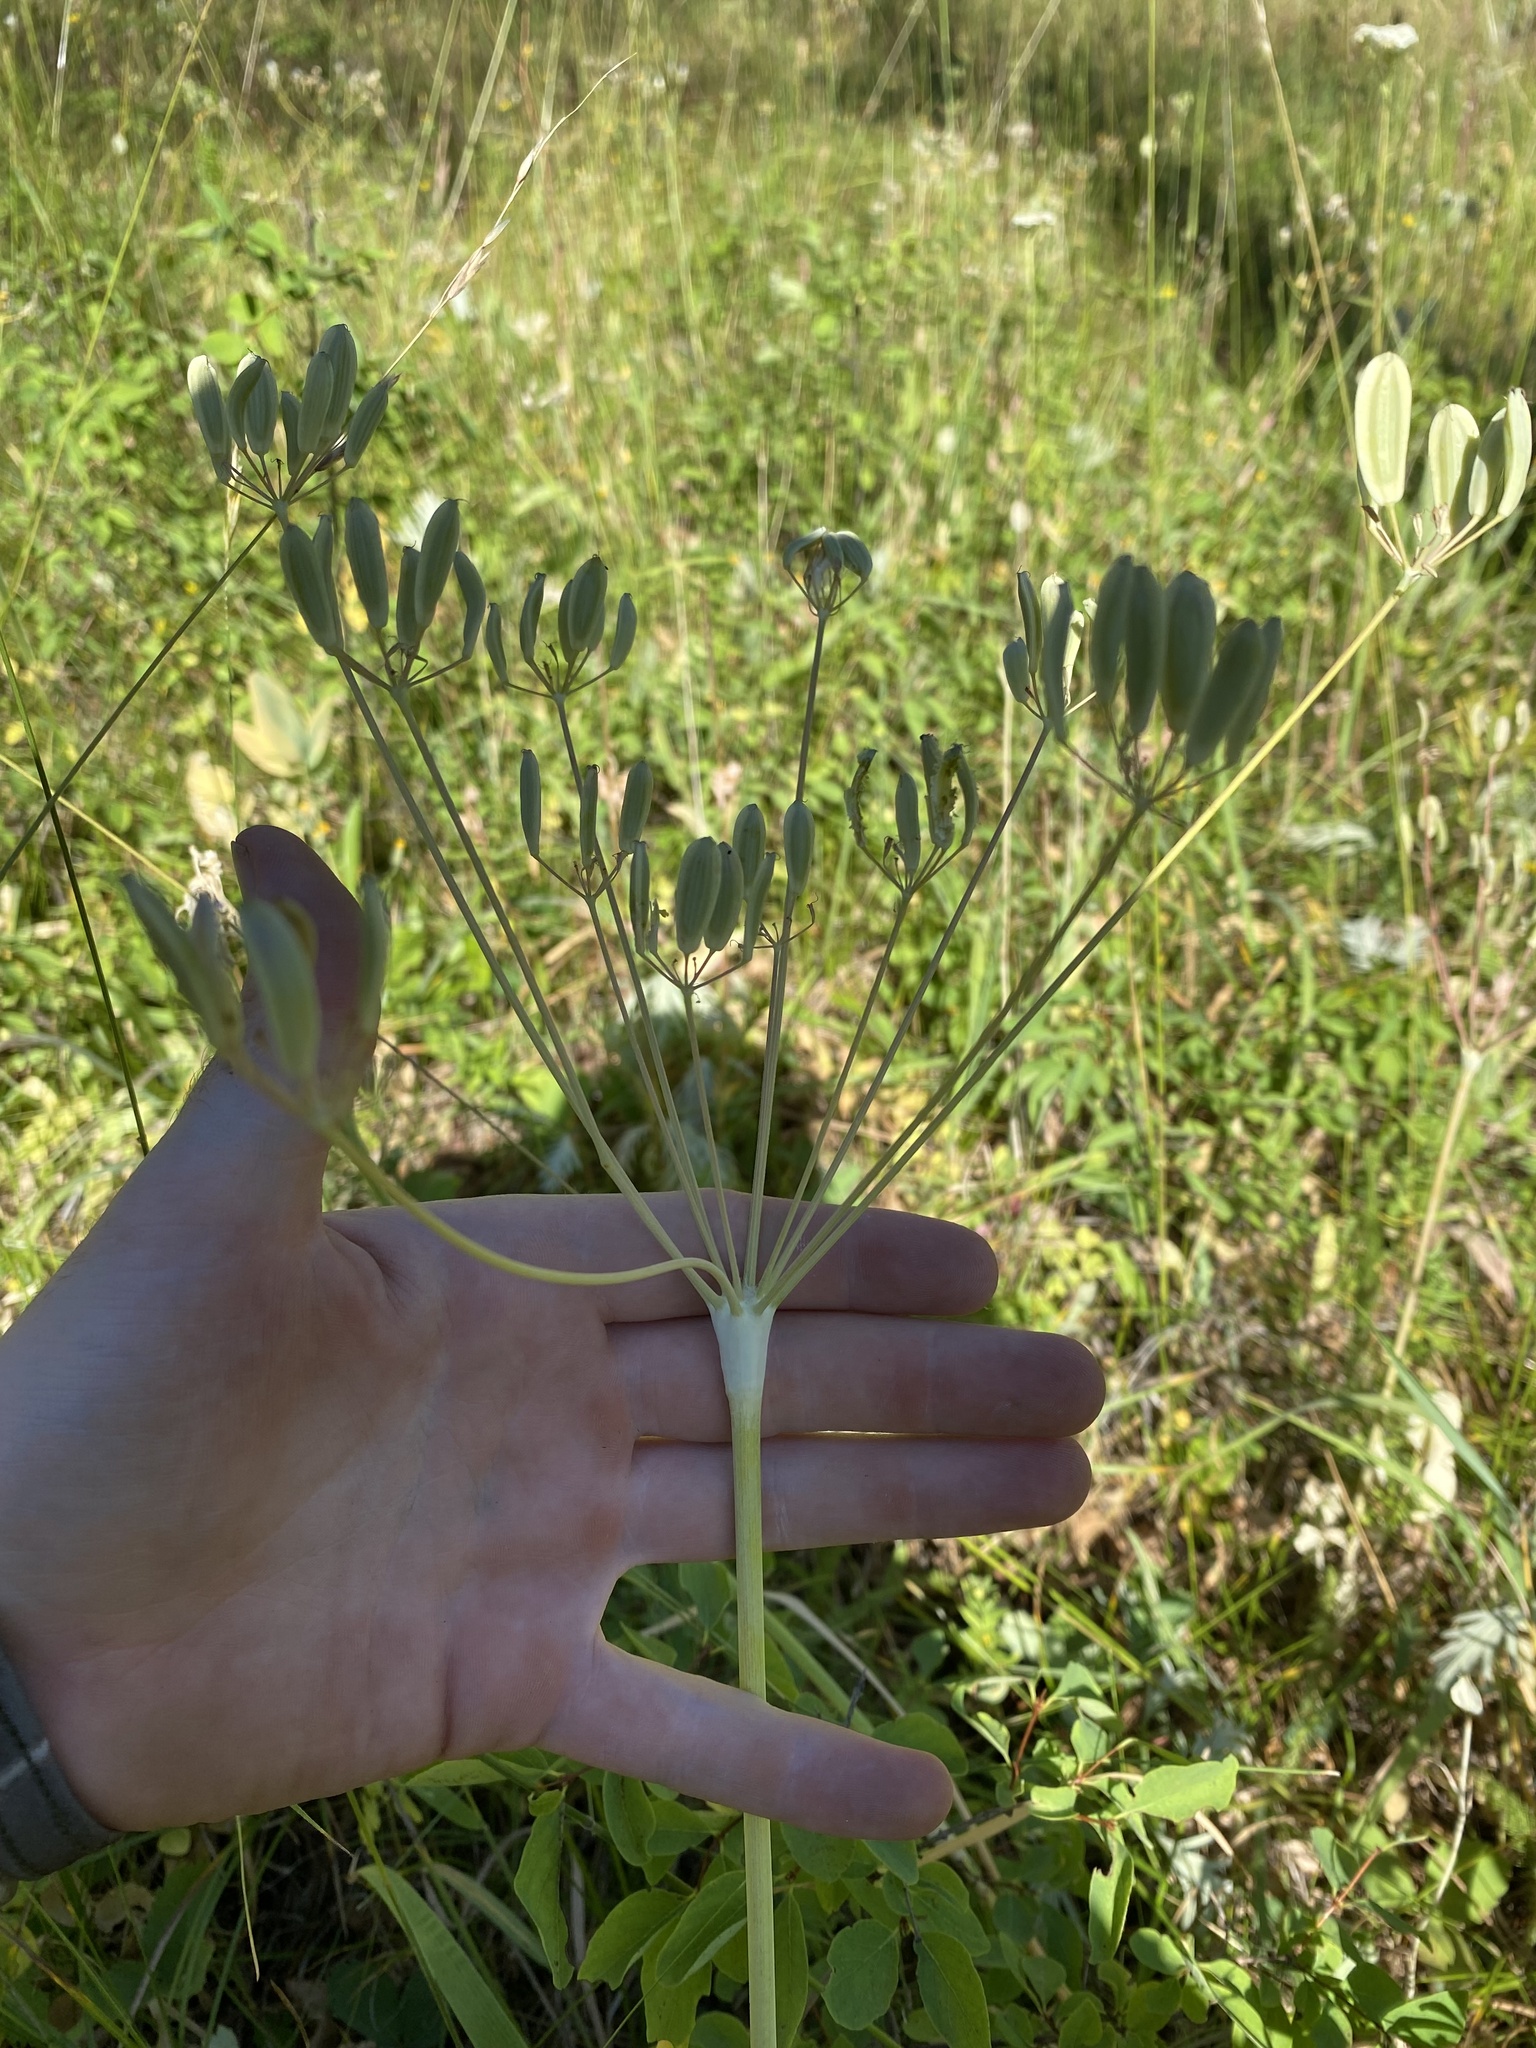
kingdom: Plantae
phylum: Tracheophyta
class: Magnoliopsida
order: Apiales
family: Apiaceae
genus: Lomatium
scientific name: Lomatium nudicaule
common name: Pestle lomatium
